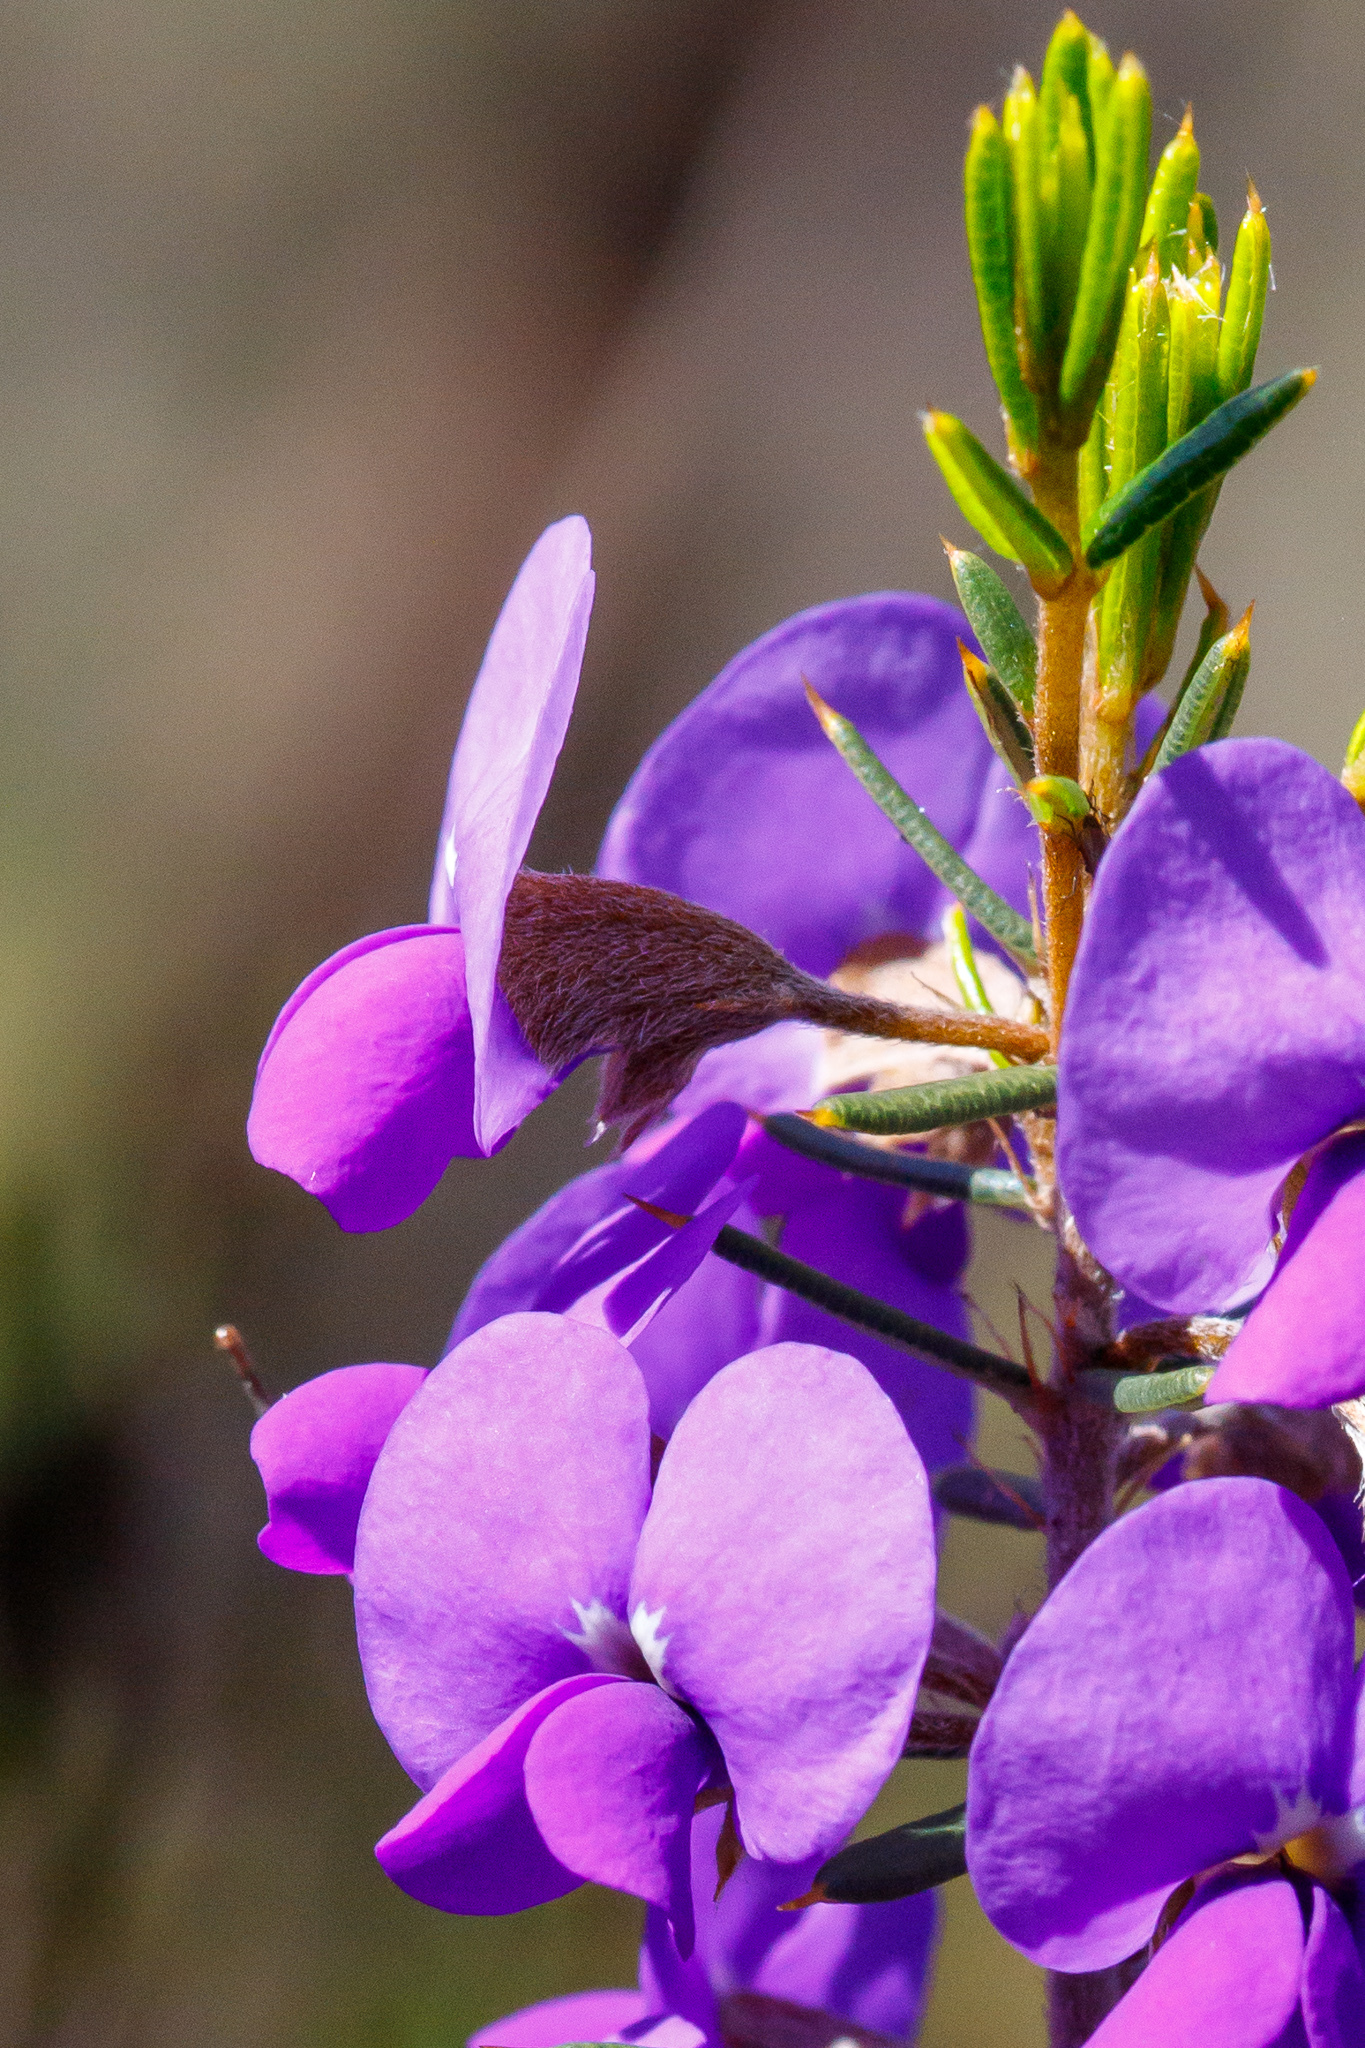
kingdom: Plantae
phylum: Tracheophyta
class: Magnoliopsida
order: Fabales
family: Fabaceae
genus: Hovea
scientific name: Hovea pungens
